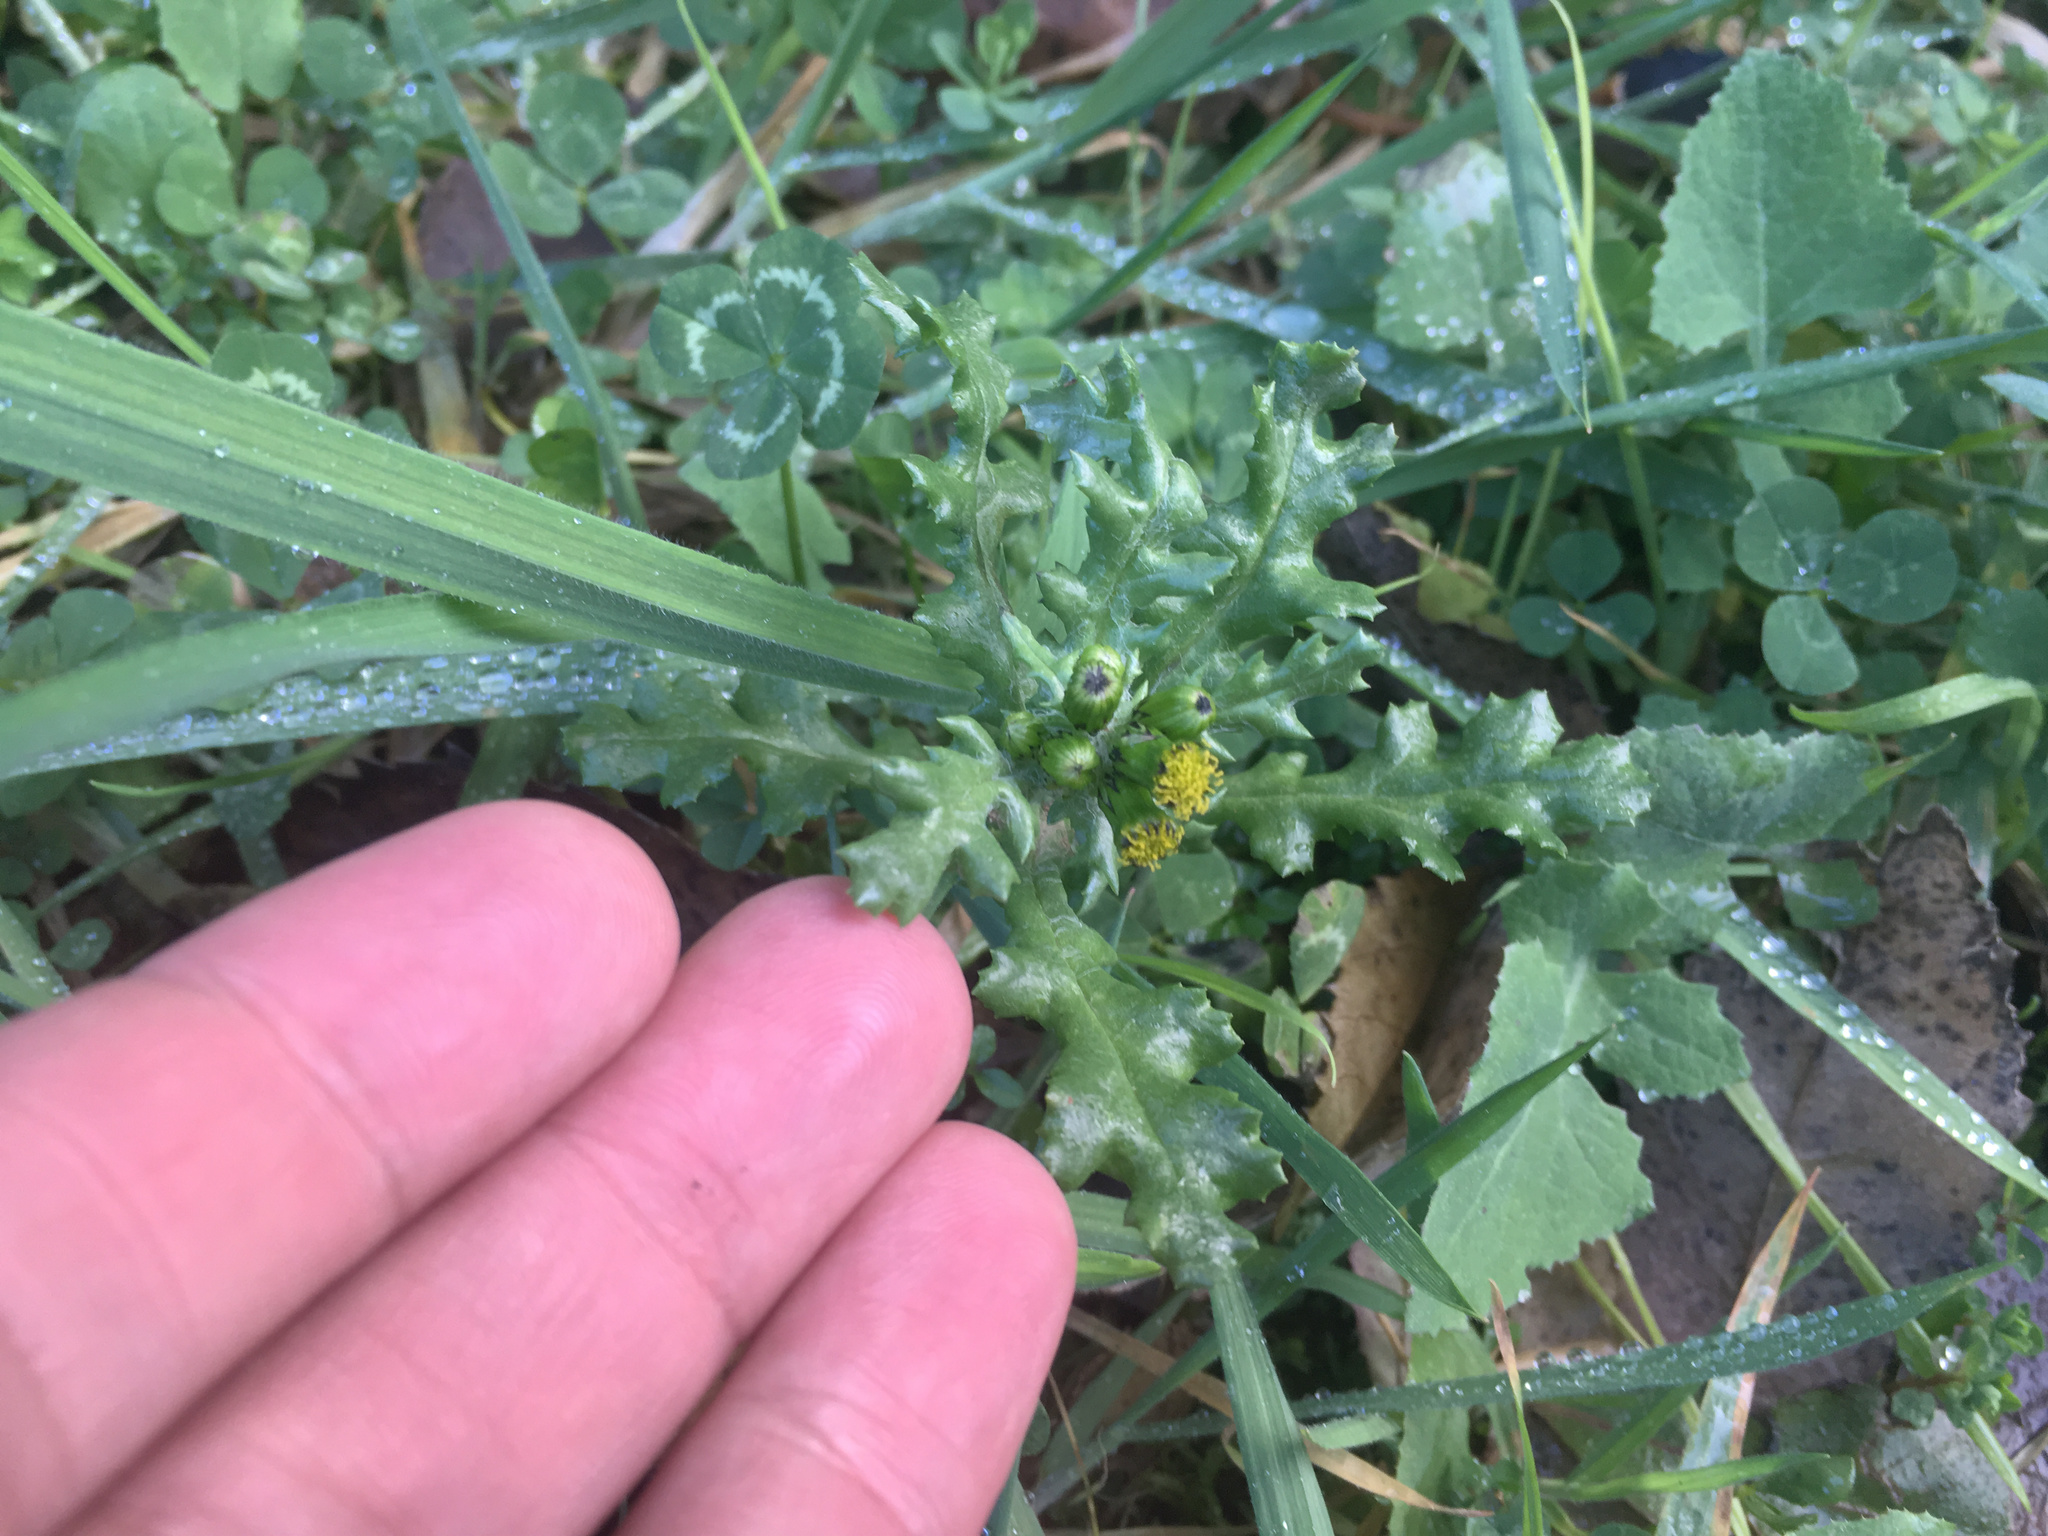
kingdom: Plantae
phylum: Tracheophyta
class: Magnoliopsida
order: Asterales
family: Asteraceae
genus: Senecio
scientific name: Senecio vulgaris
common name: Old-man-in-the-spring
